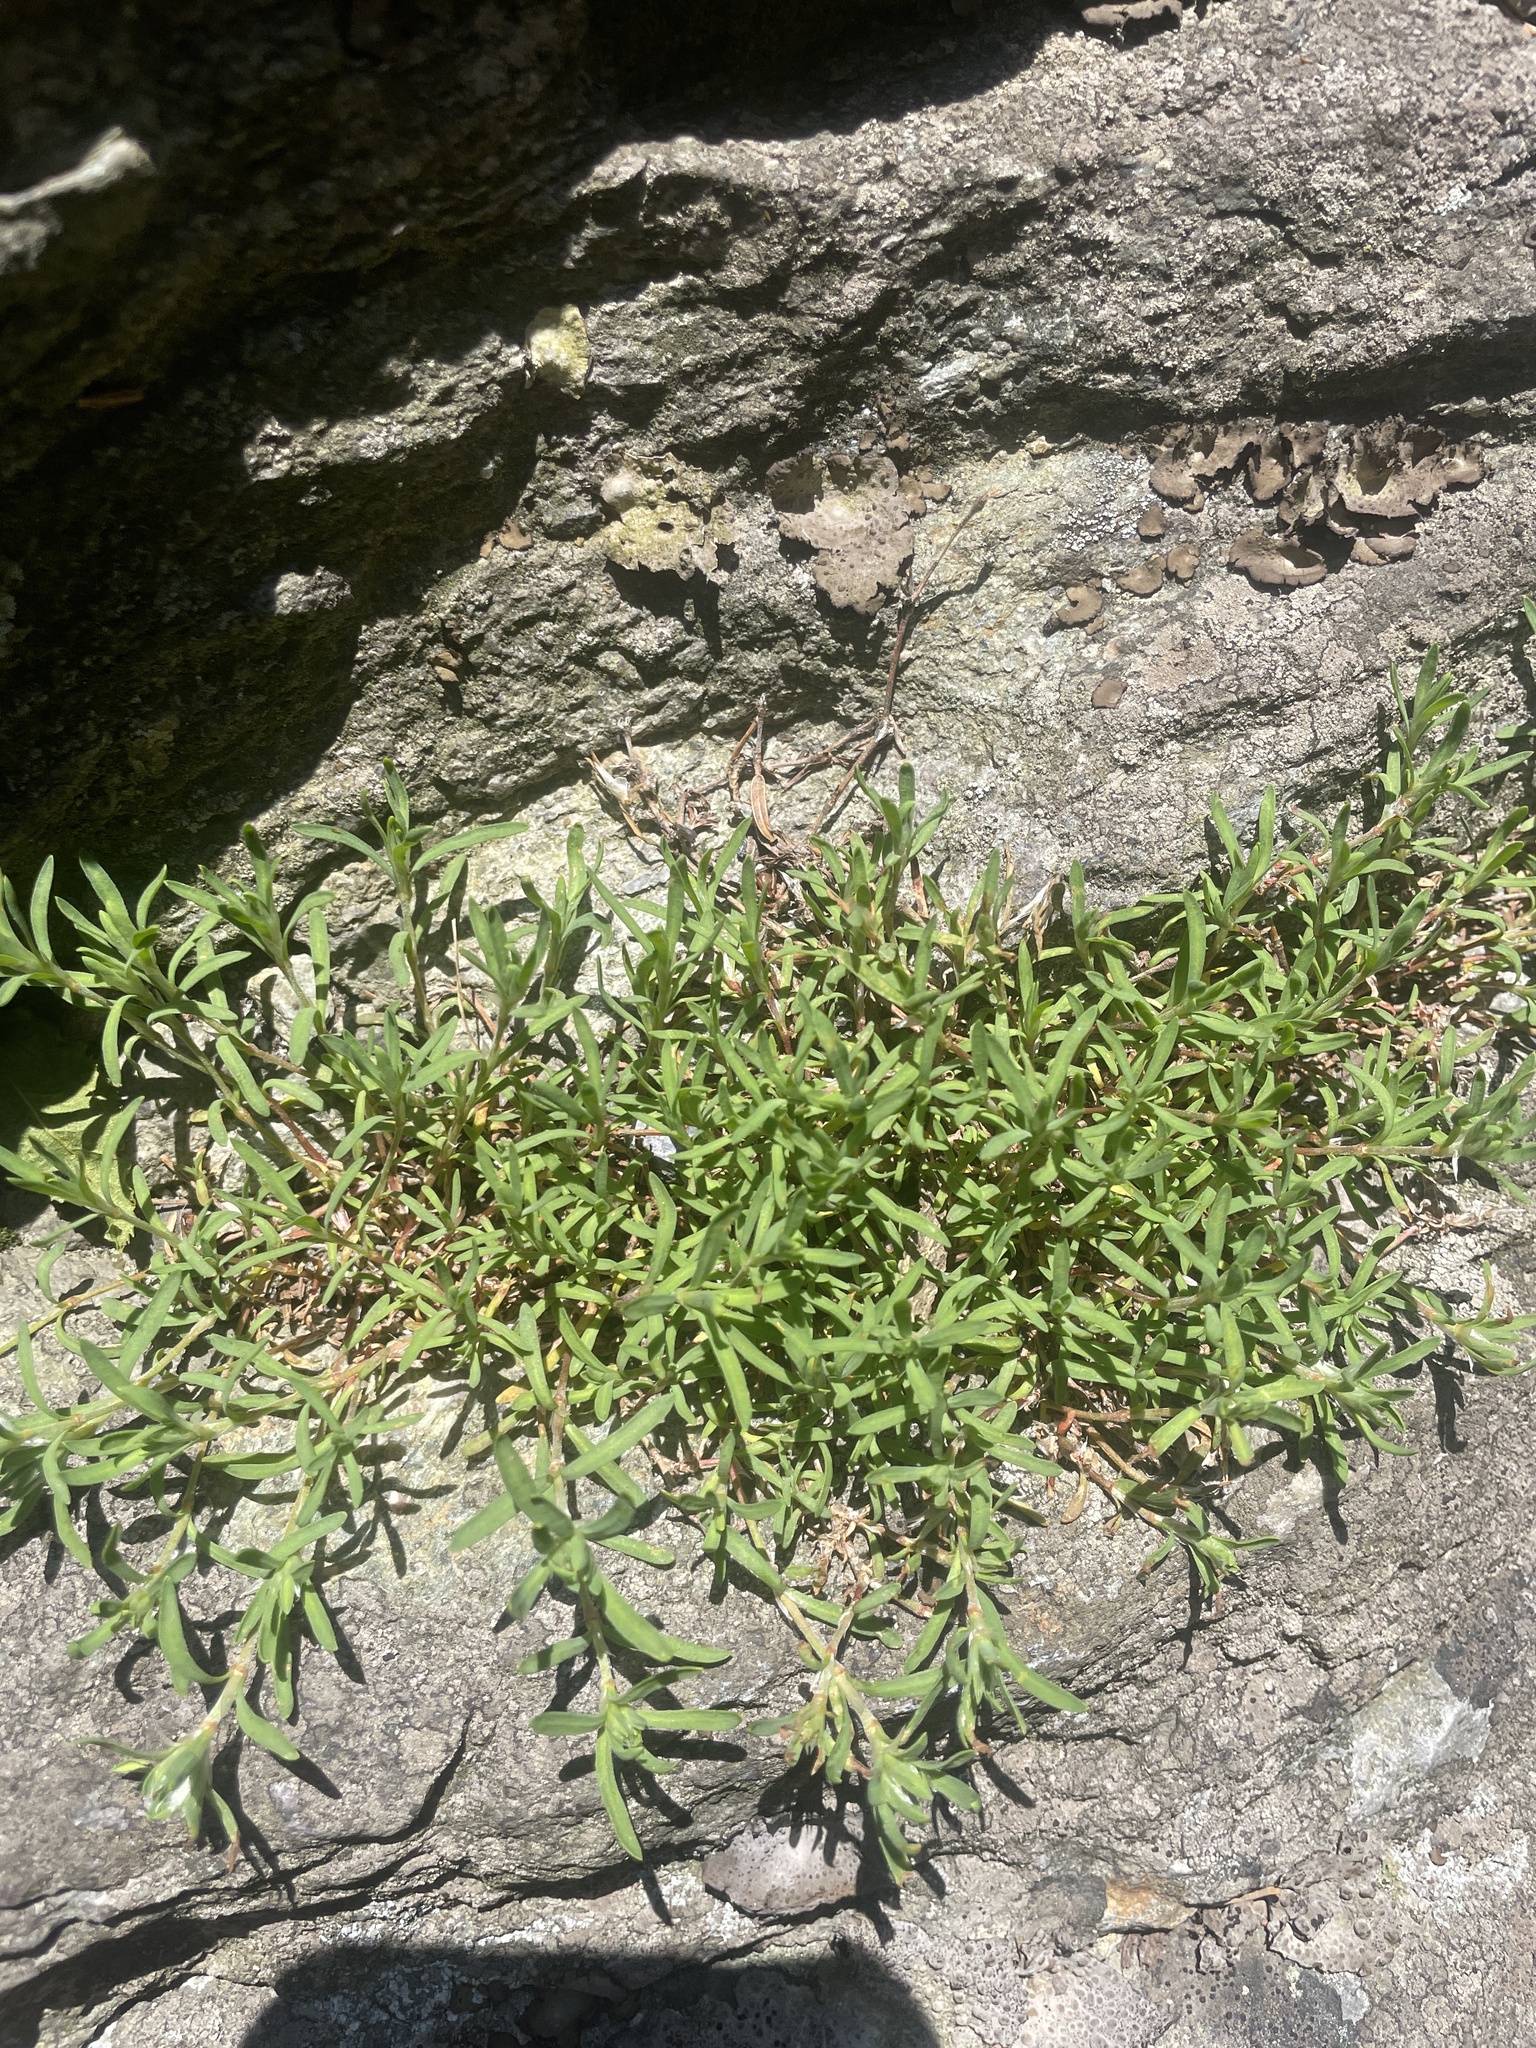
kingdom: Plantae
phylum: Tracheophyta
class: Magnoliopsida
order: Caryophyllales
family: Caryophyllaceae
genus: Paronychia
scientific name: Paronychia argyrocoma
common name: Silverling
